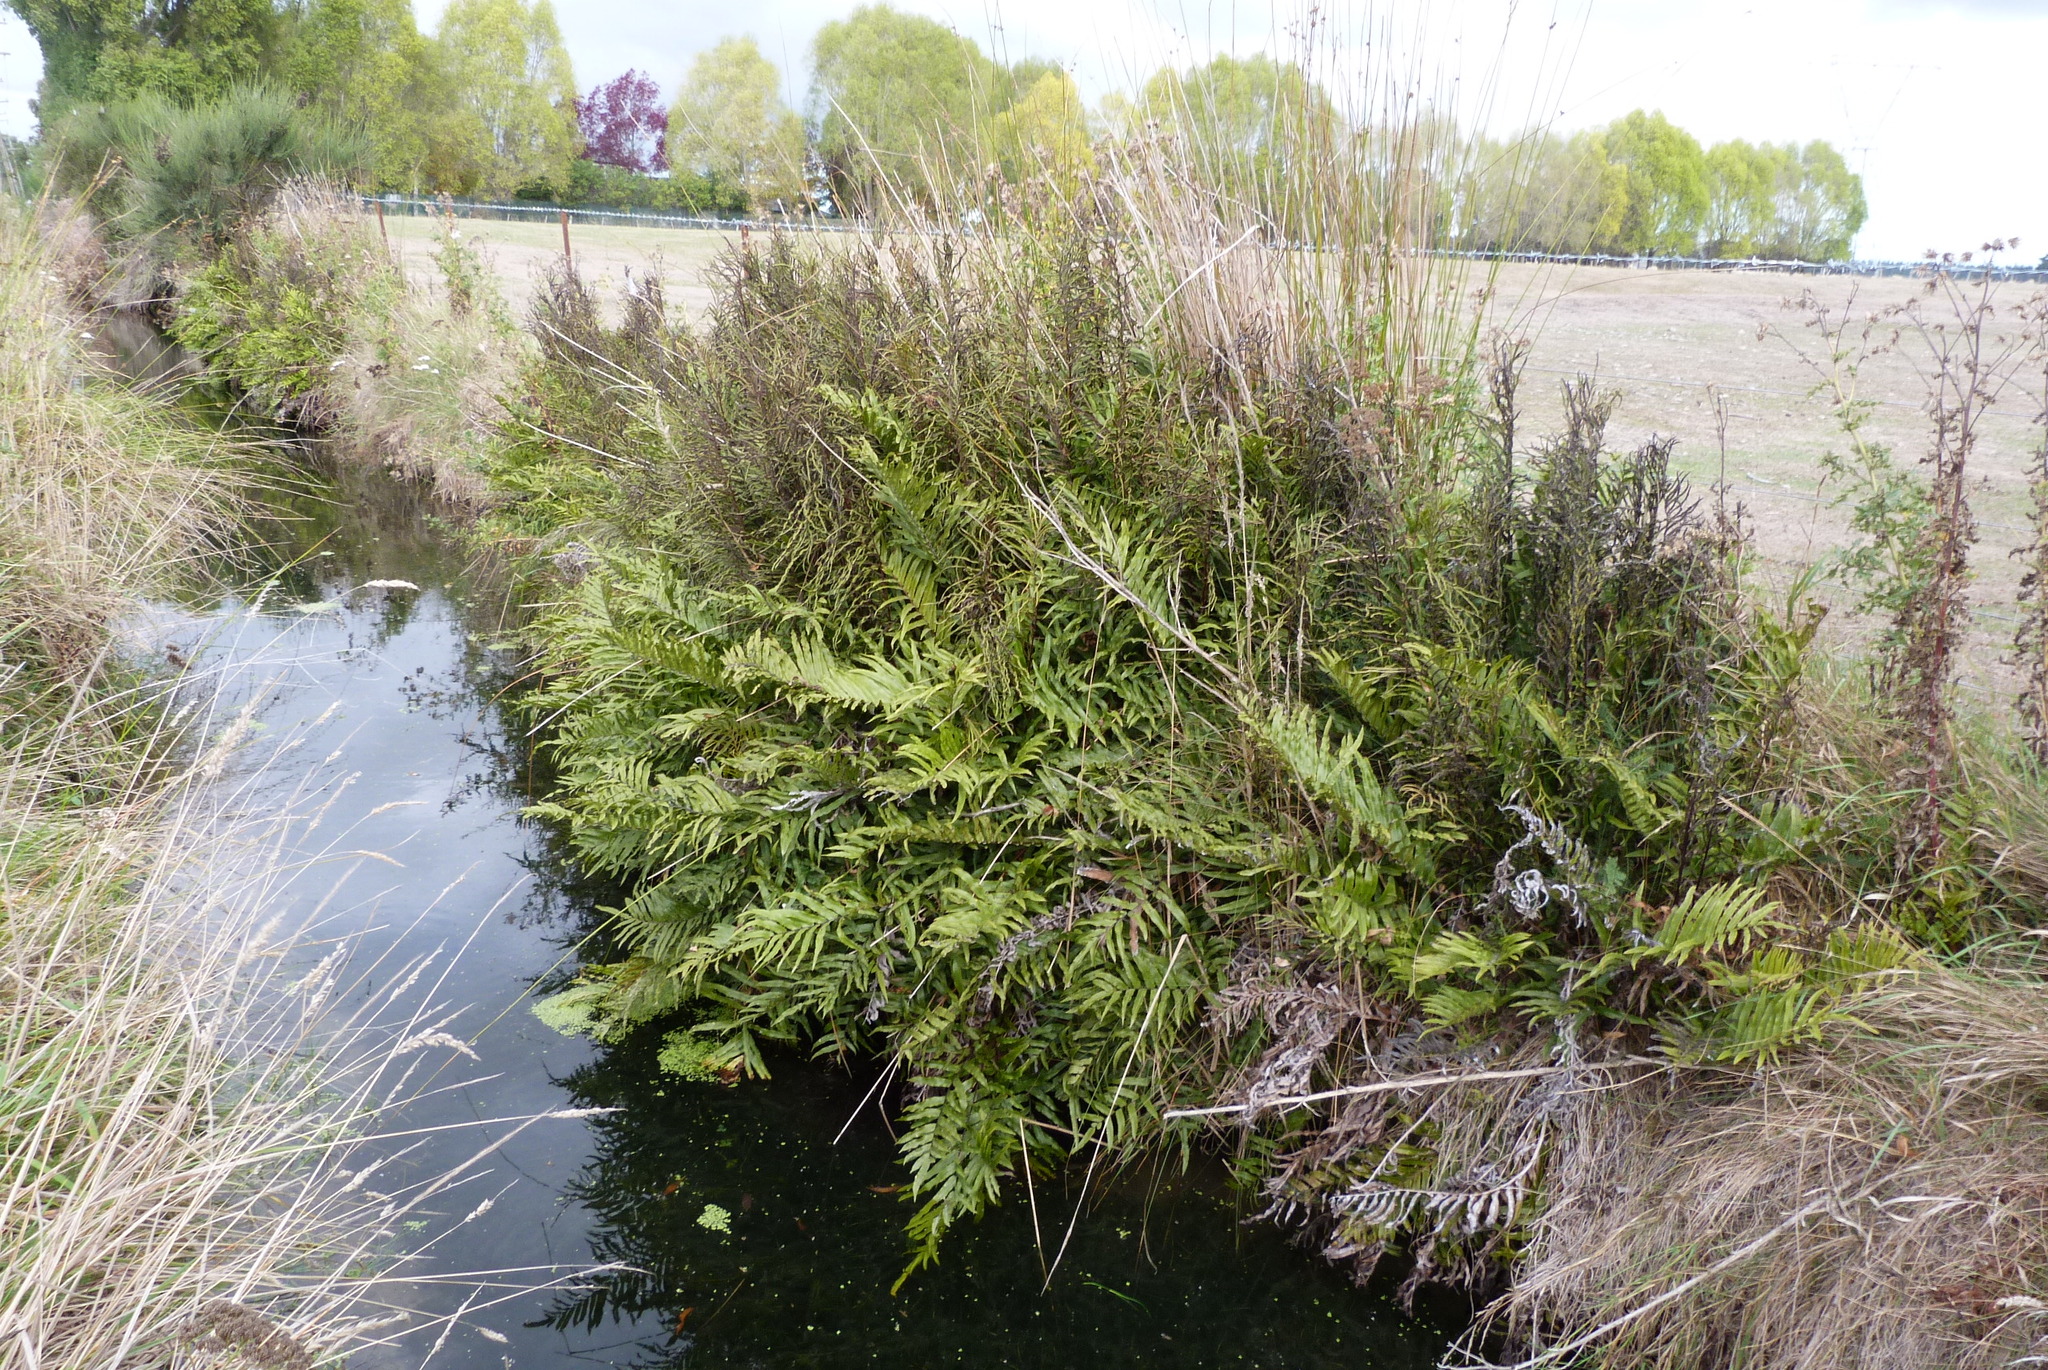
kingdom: Plantae
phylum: Tracheophyta
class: Polypodiopsida
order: Polypodiales
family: Blechnaceae
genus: Parablechnum
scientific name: Parablechnum minus
